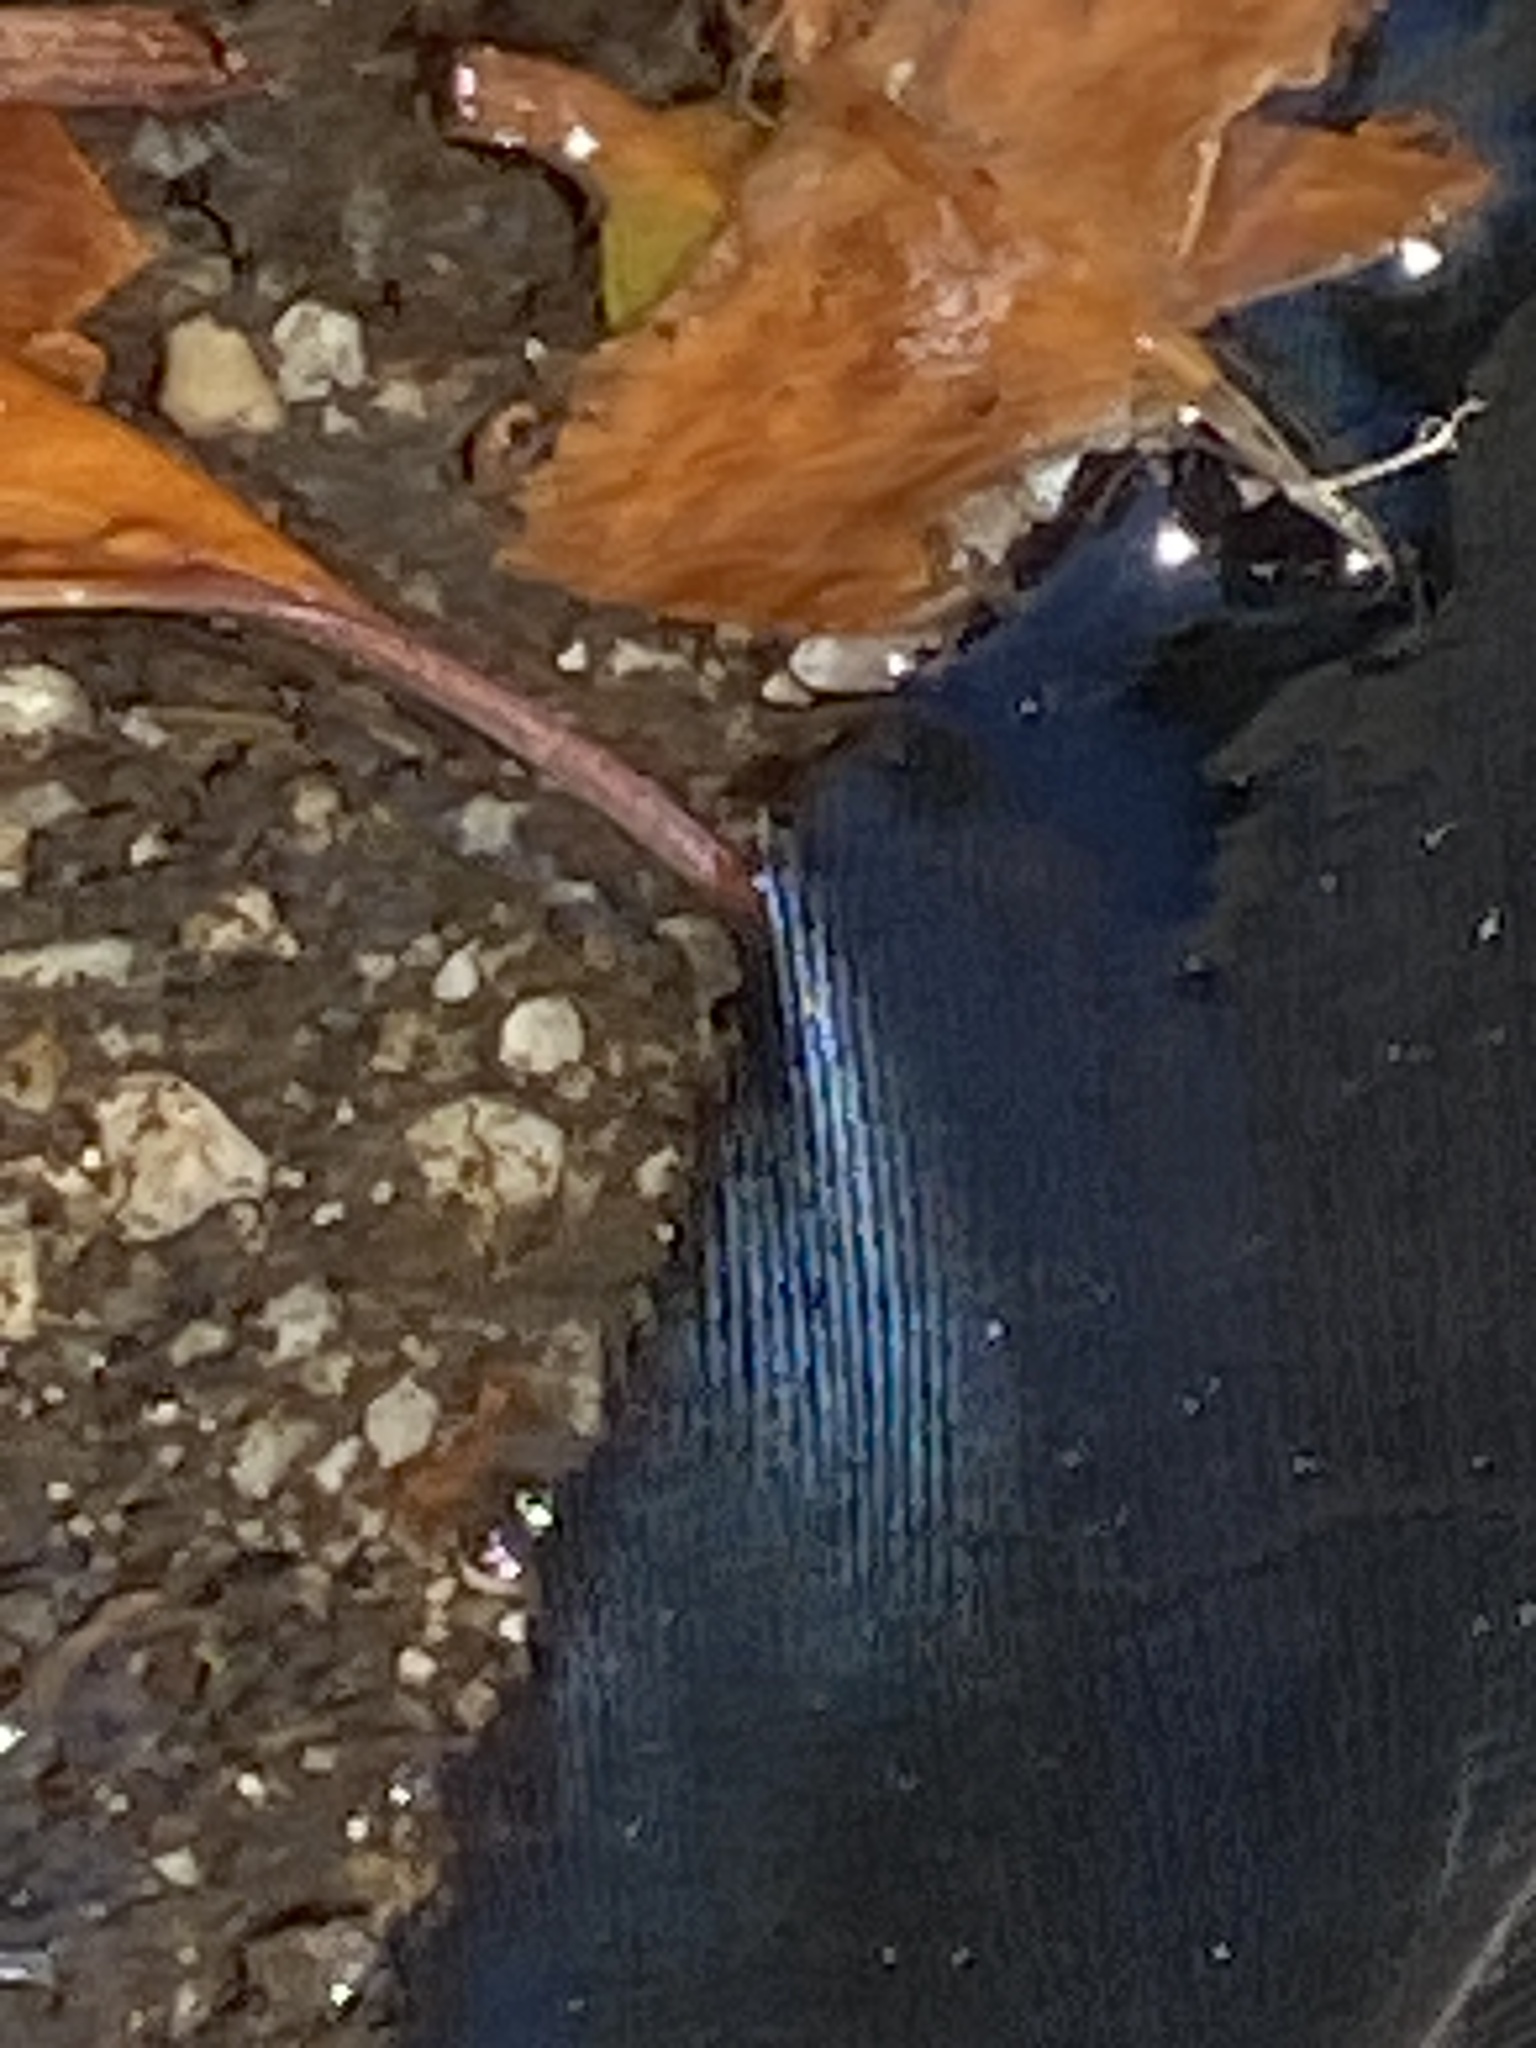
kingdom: Animalia
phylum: Chordata
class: Aves
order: Passeriformes
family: Corvidae
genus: Corvus
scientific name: Corvus brachyrhynchos
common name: American crow
